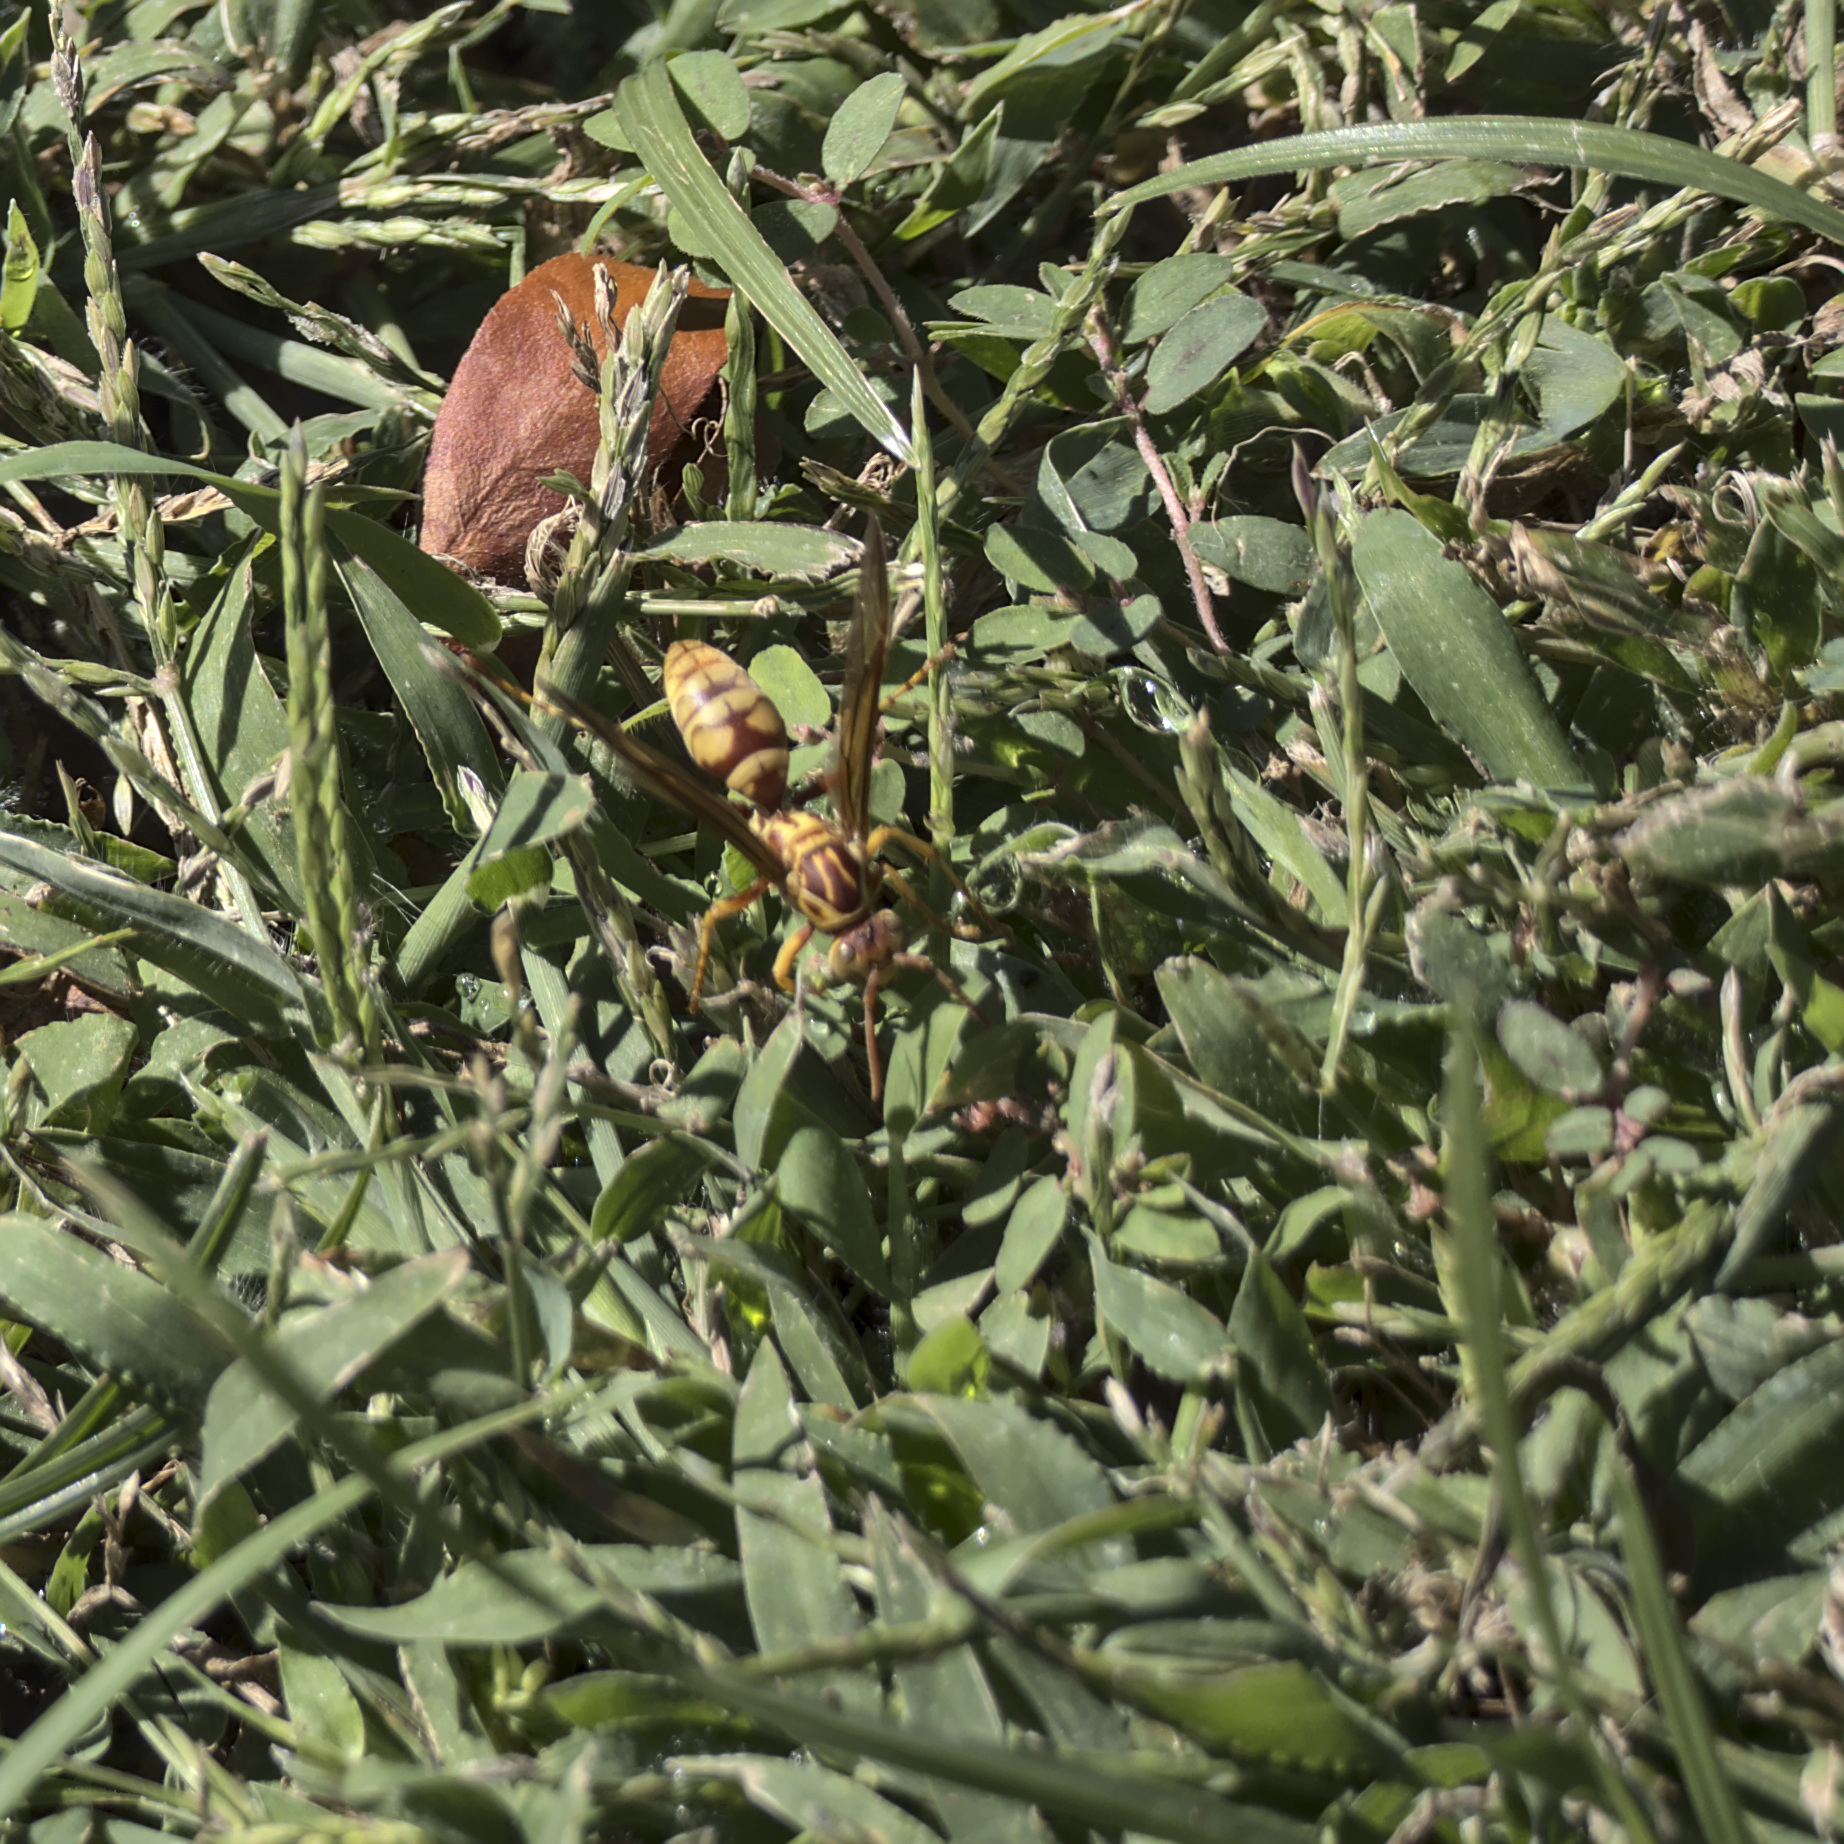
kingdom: Animalia
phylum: Arthropoda
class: Insecta
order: Hymenoptera
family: Eumenidae
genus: Polistes
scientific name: Polistes apachus
